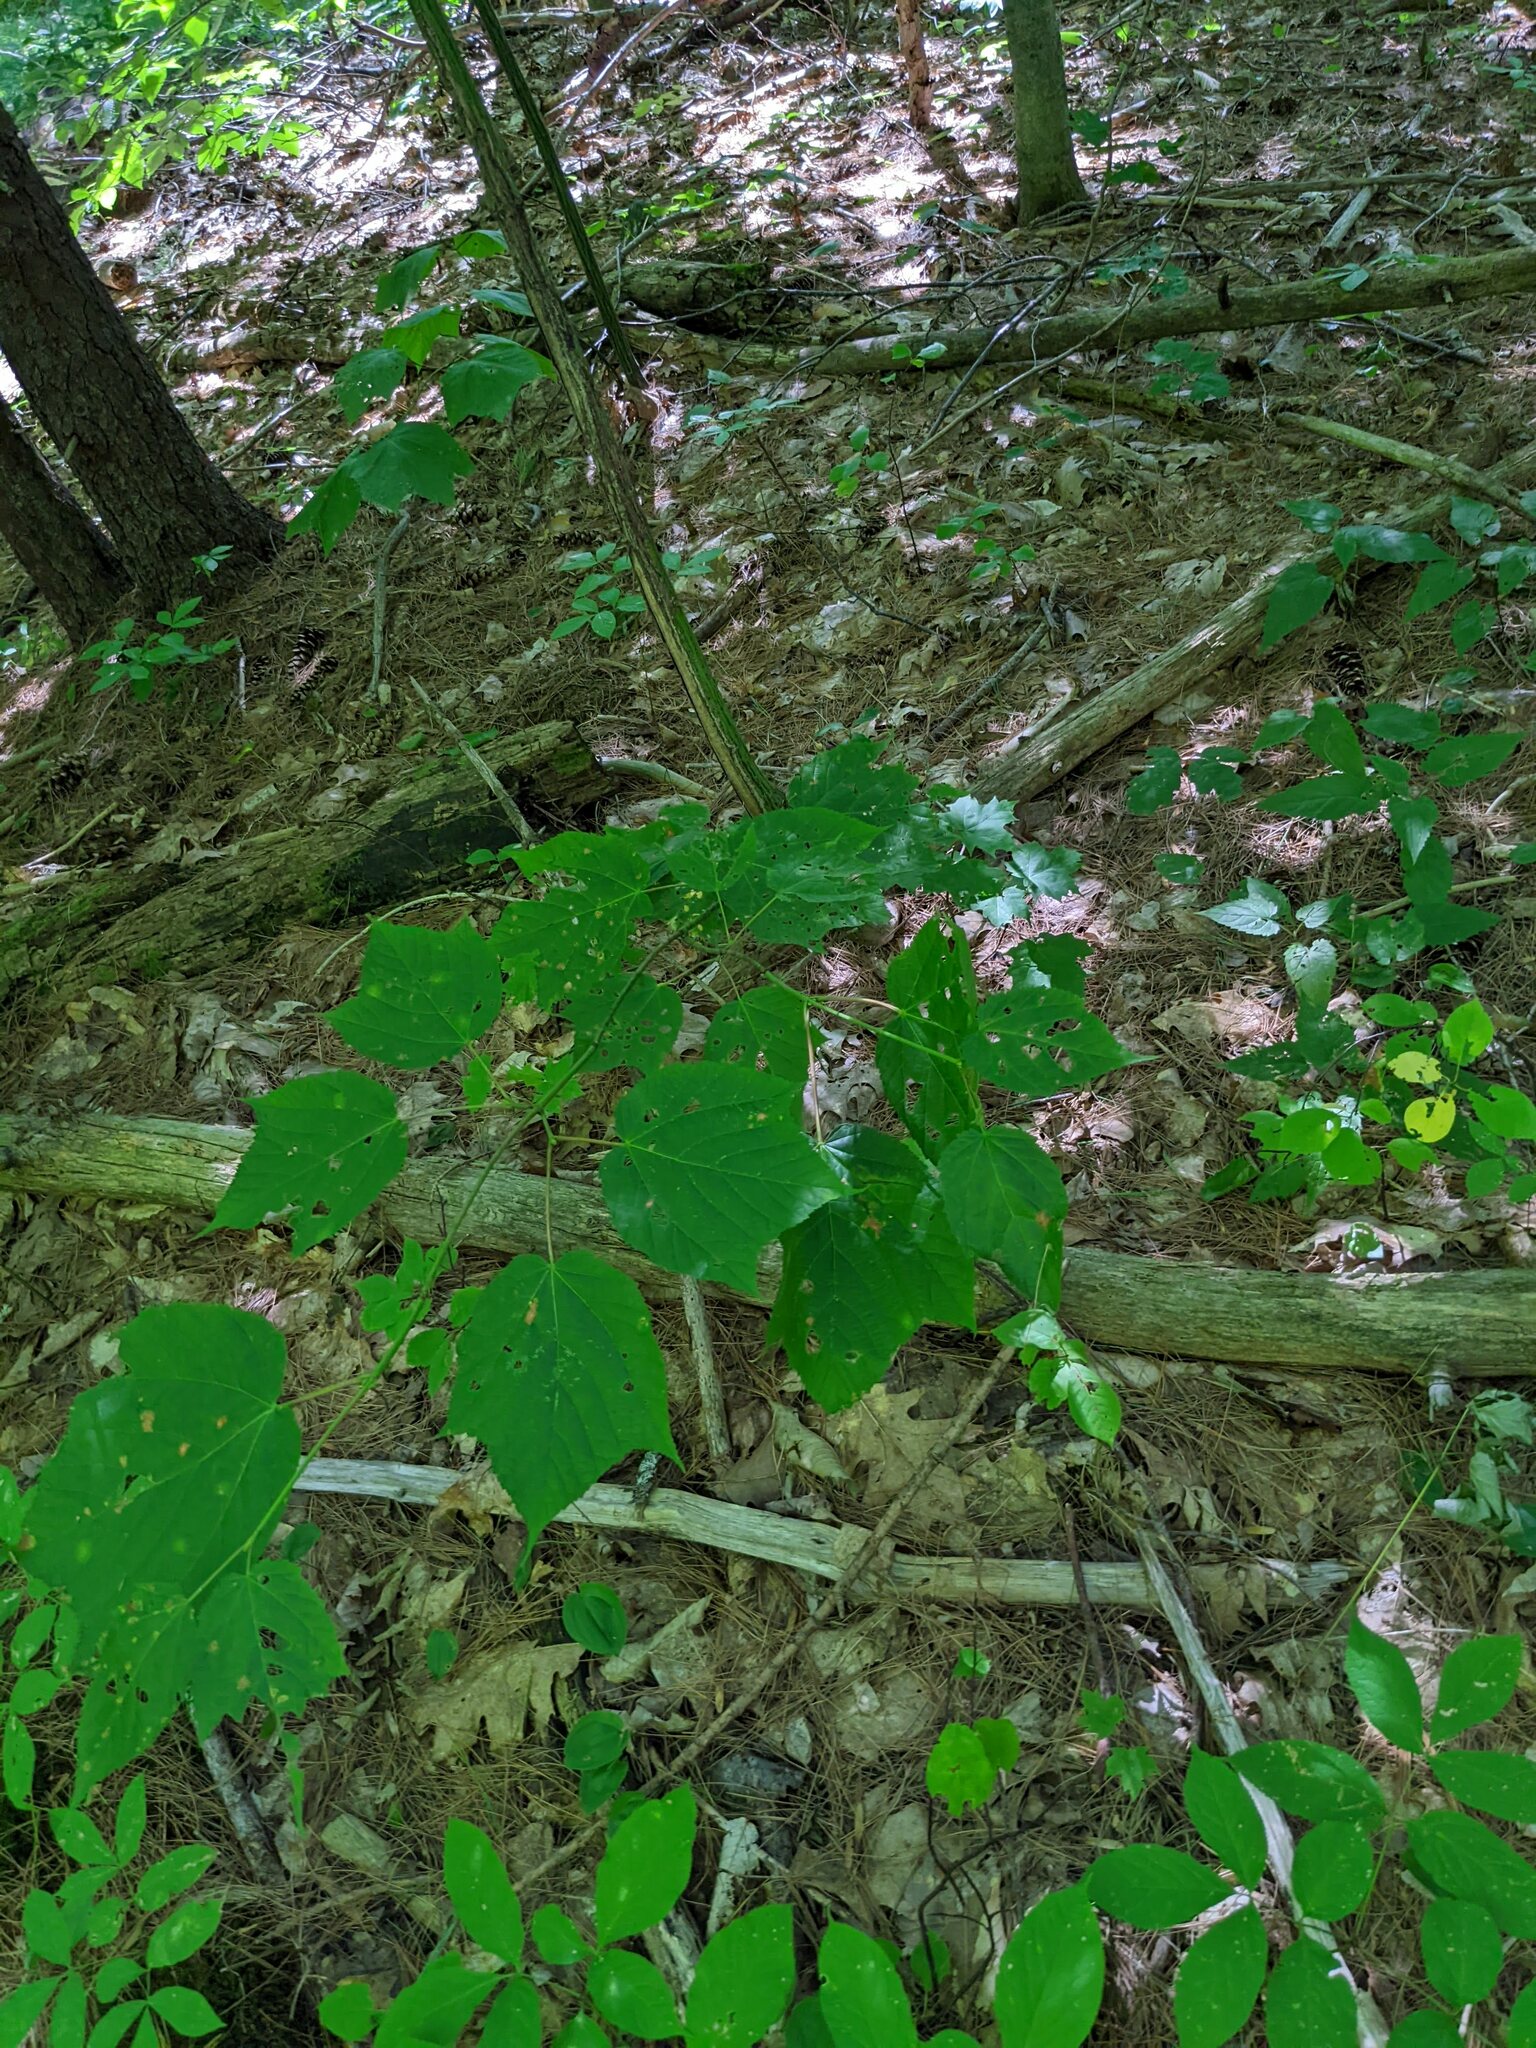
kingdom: Plantae
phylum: Tracheophyta
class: Magnoliopsida
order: Sapindales
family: Sapindaceae
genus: Acer
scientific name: Acer pensylvanicum
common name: Moosewood
